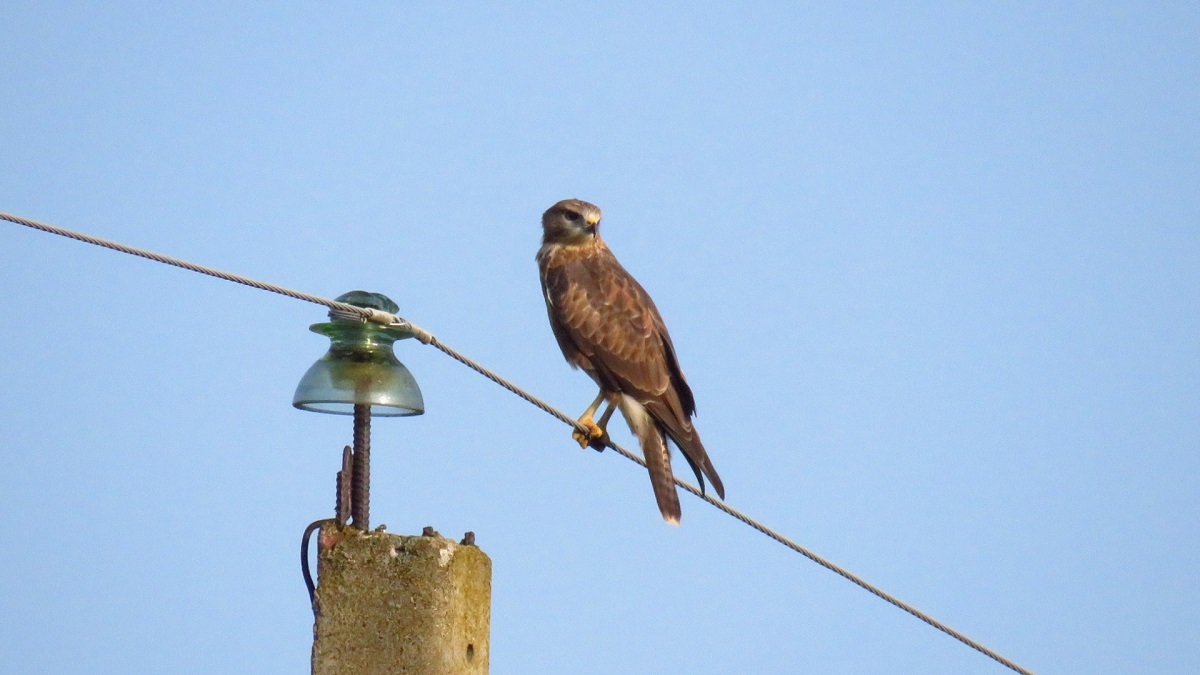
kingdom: Animalia
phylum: Chordata
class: Aves
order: Accipitriformes
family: Accipitridae
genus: Buteo
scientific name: Buteo buteo
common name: Common buzzard
